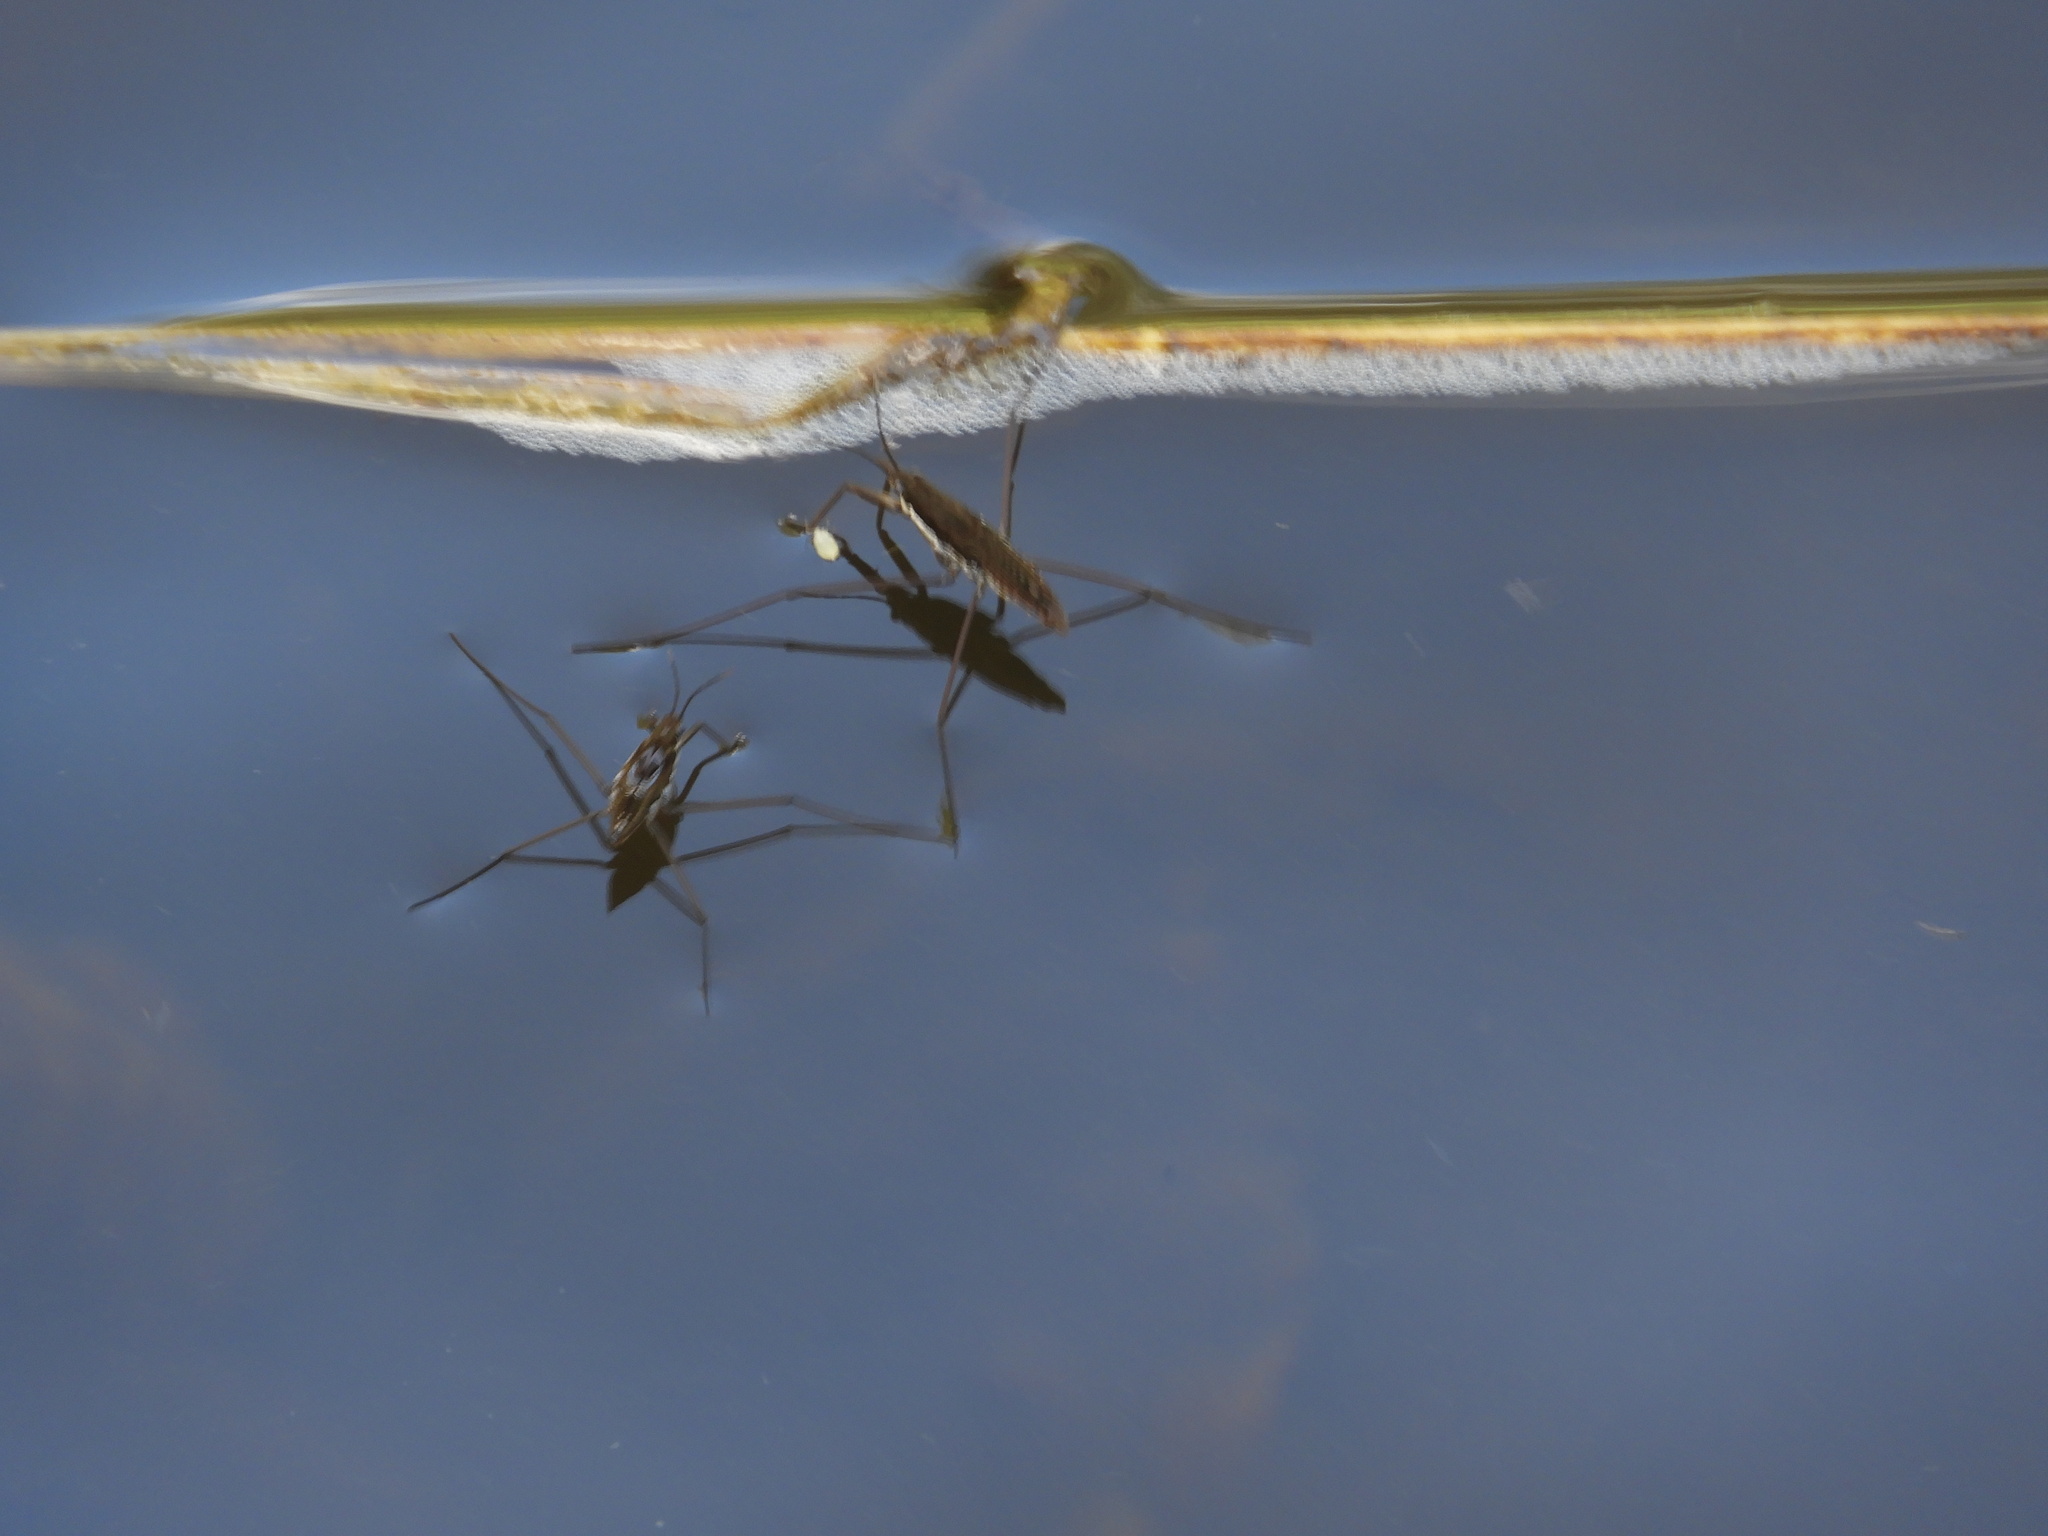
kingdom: Animalia
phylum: Arthropoda
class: Insecta
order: Hemiptera
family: Gerridae
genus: Aquarius
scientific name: Aquarius remigis
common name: Common water strider
